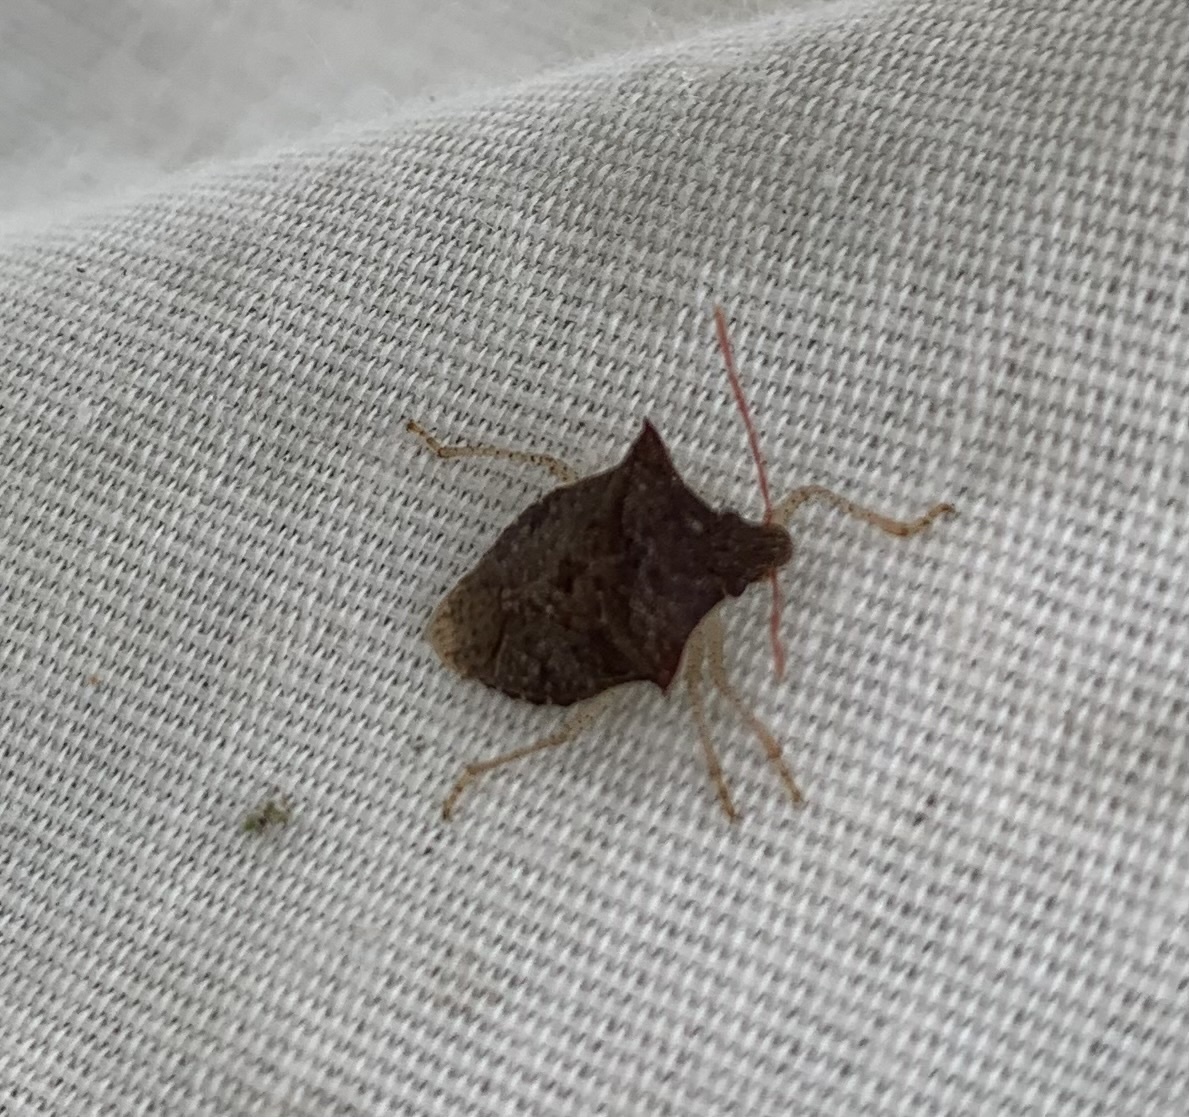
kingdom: Animalia
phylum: Arthropoda
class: Insecta
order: Hemiptera
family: Pentatomidae
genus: Euschistus
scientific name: Euschistus tristigmus
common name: Dusky stink bug
